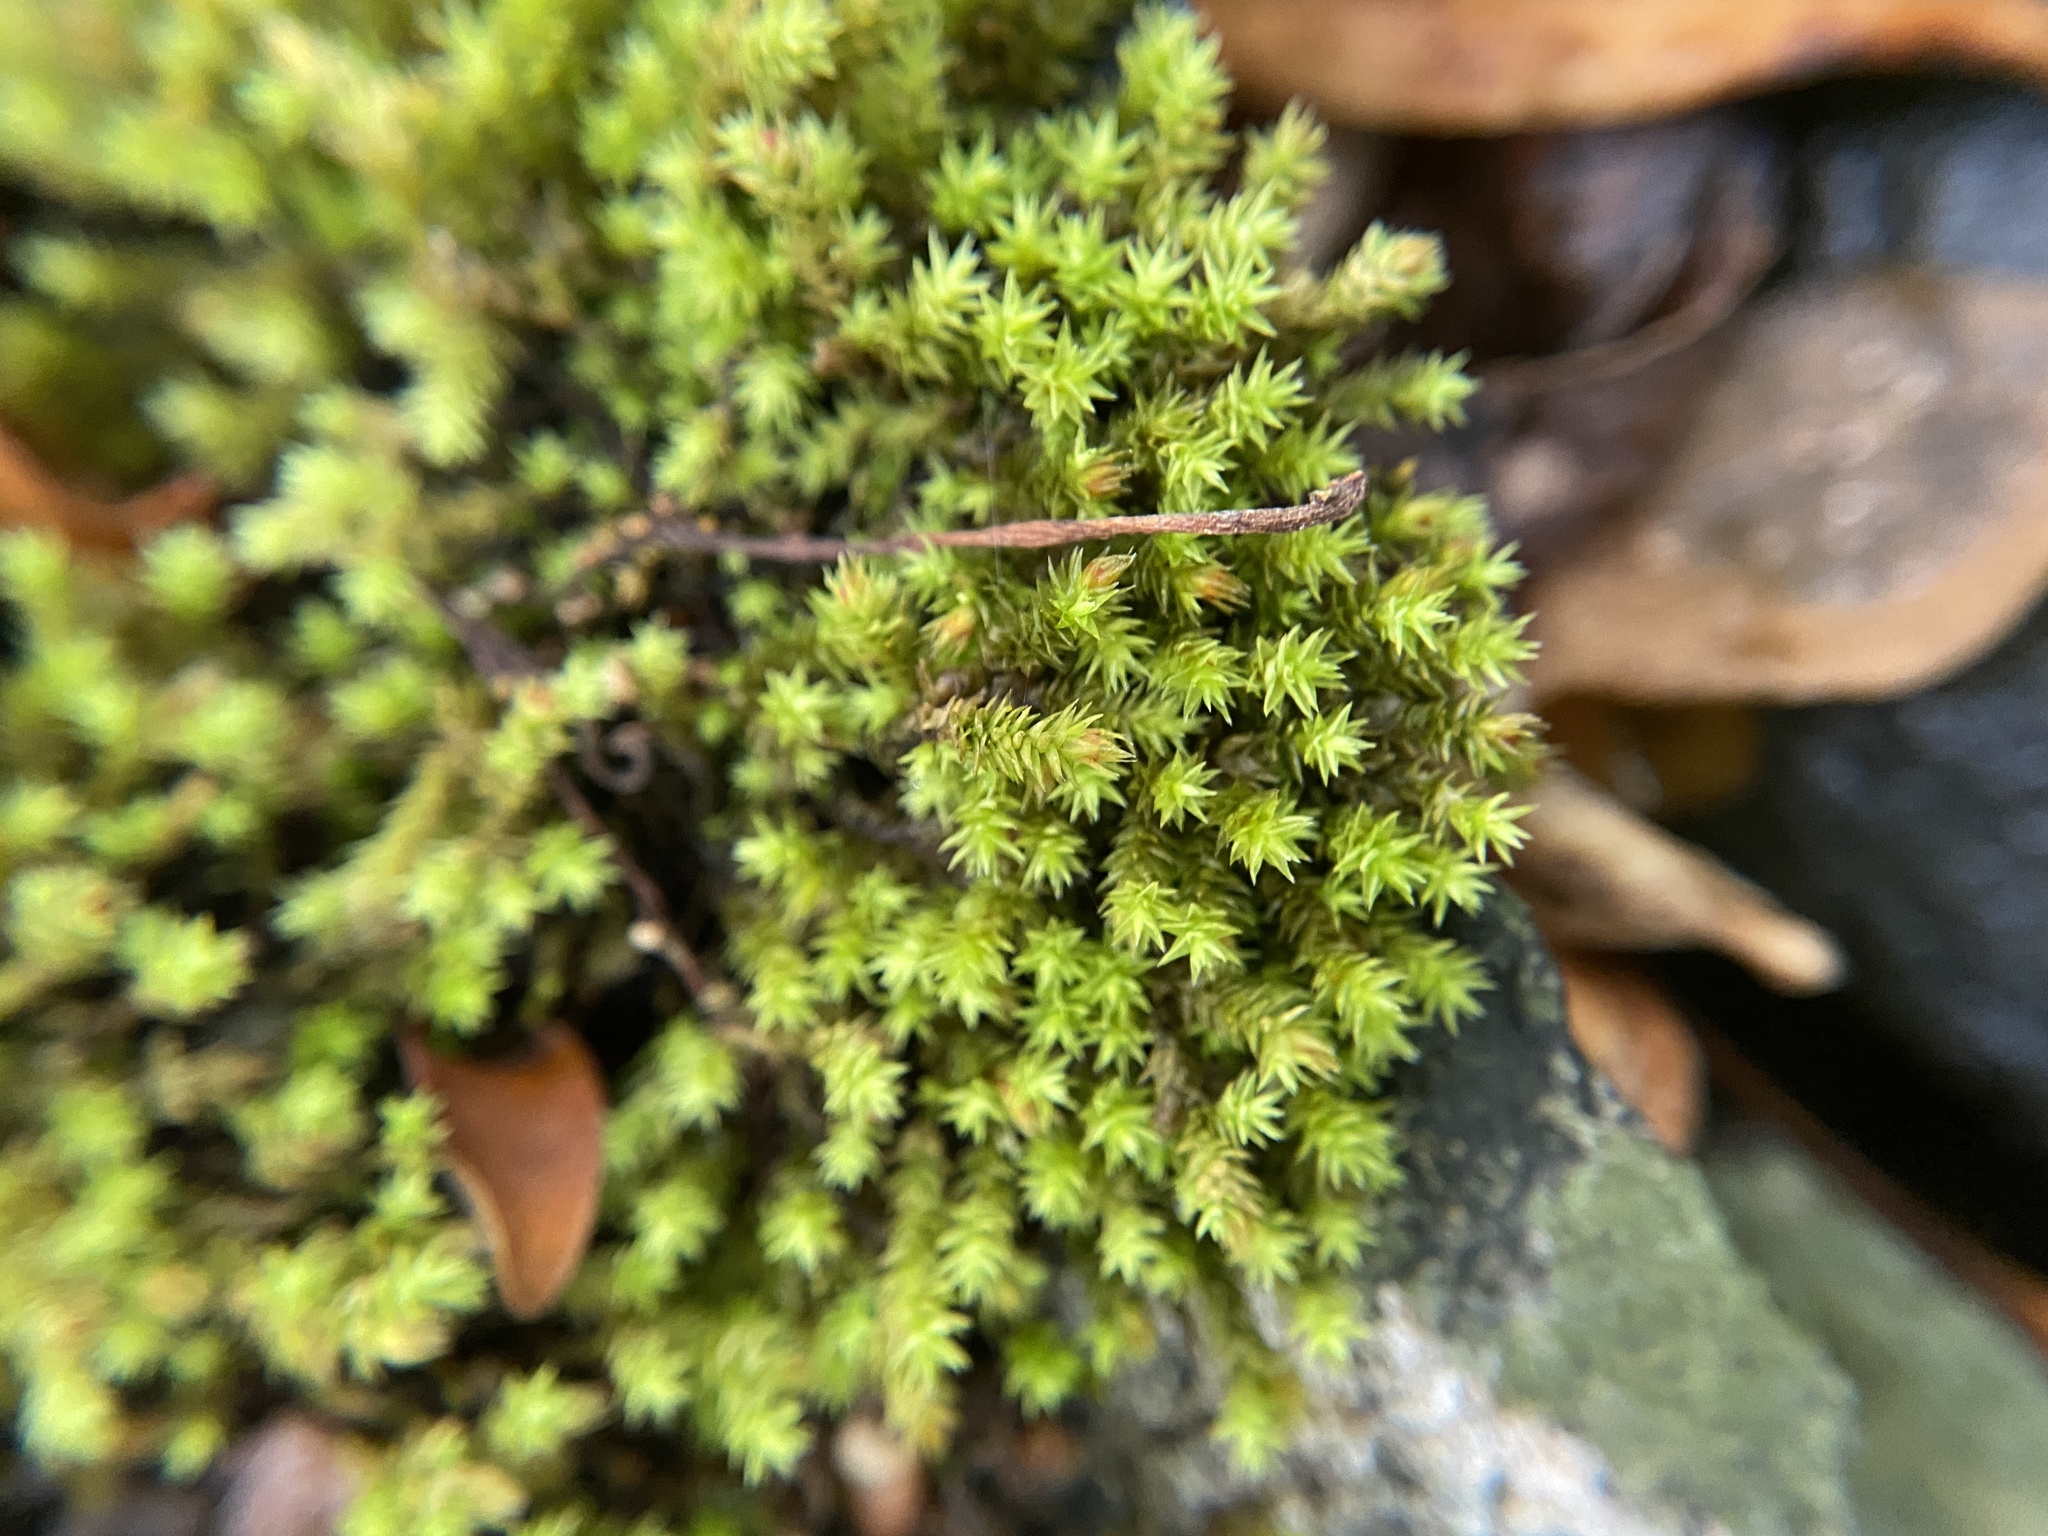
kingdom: Plantae
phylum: Bryophyta
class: Bryopsida
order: Hedwigiales
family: Hedwigiaceae
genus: Hedwigia
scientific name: Hedwigia ciliata
